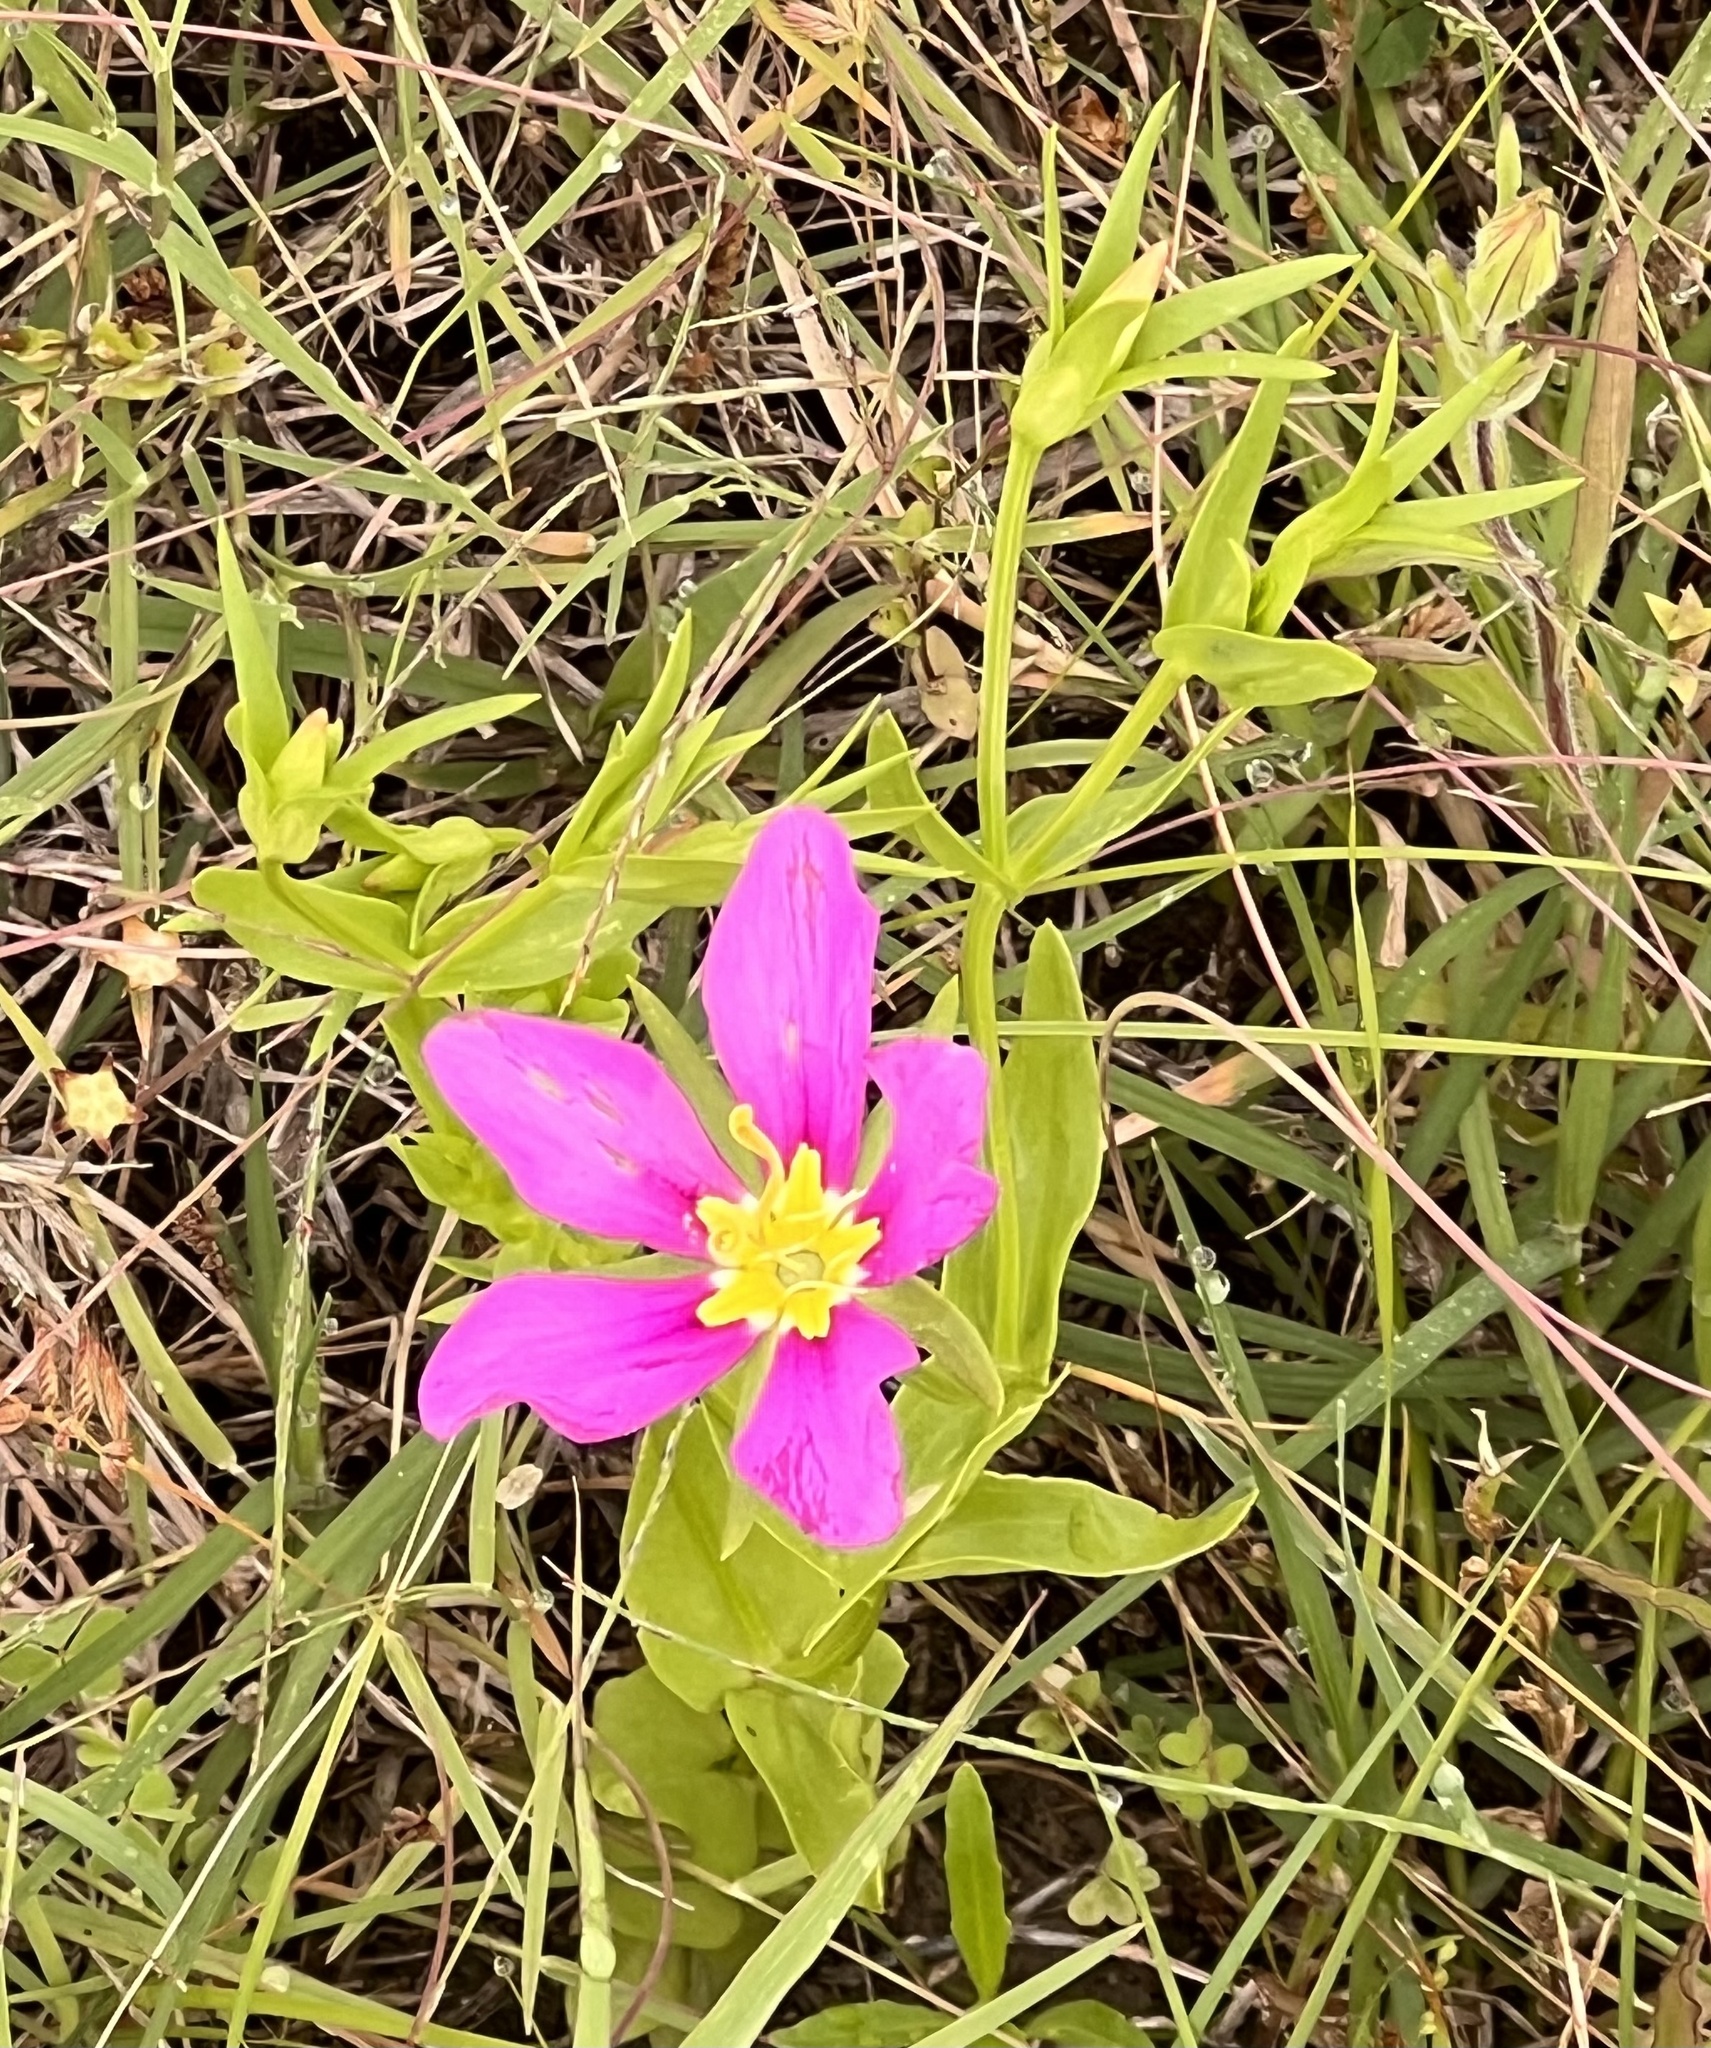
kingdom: Plantae
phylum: Tracheophyta
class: Magnoliopsida
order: Gentianales
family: Gentianaceae
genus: Sabatia
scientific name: Sabatia campestris
